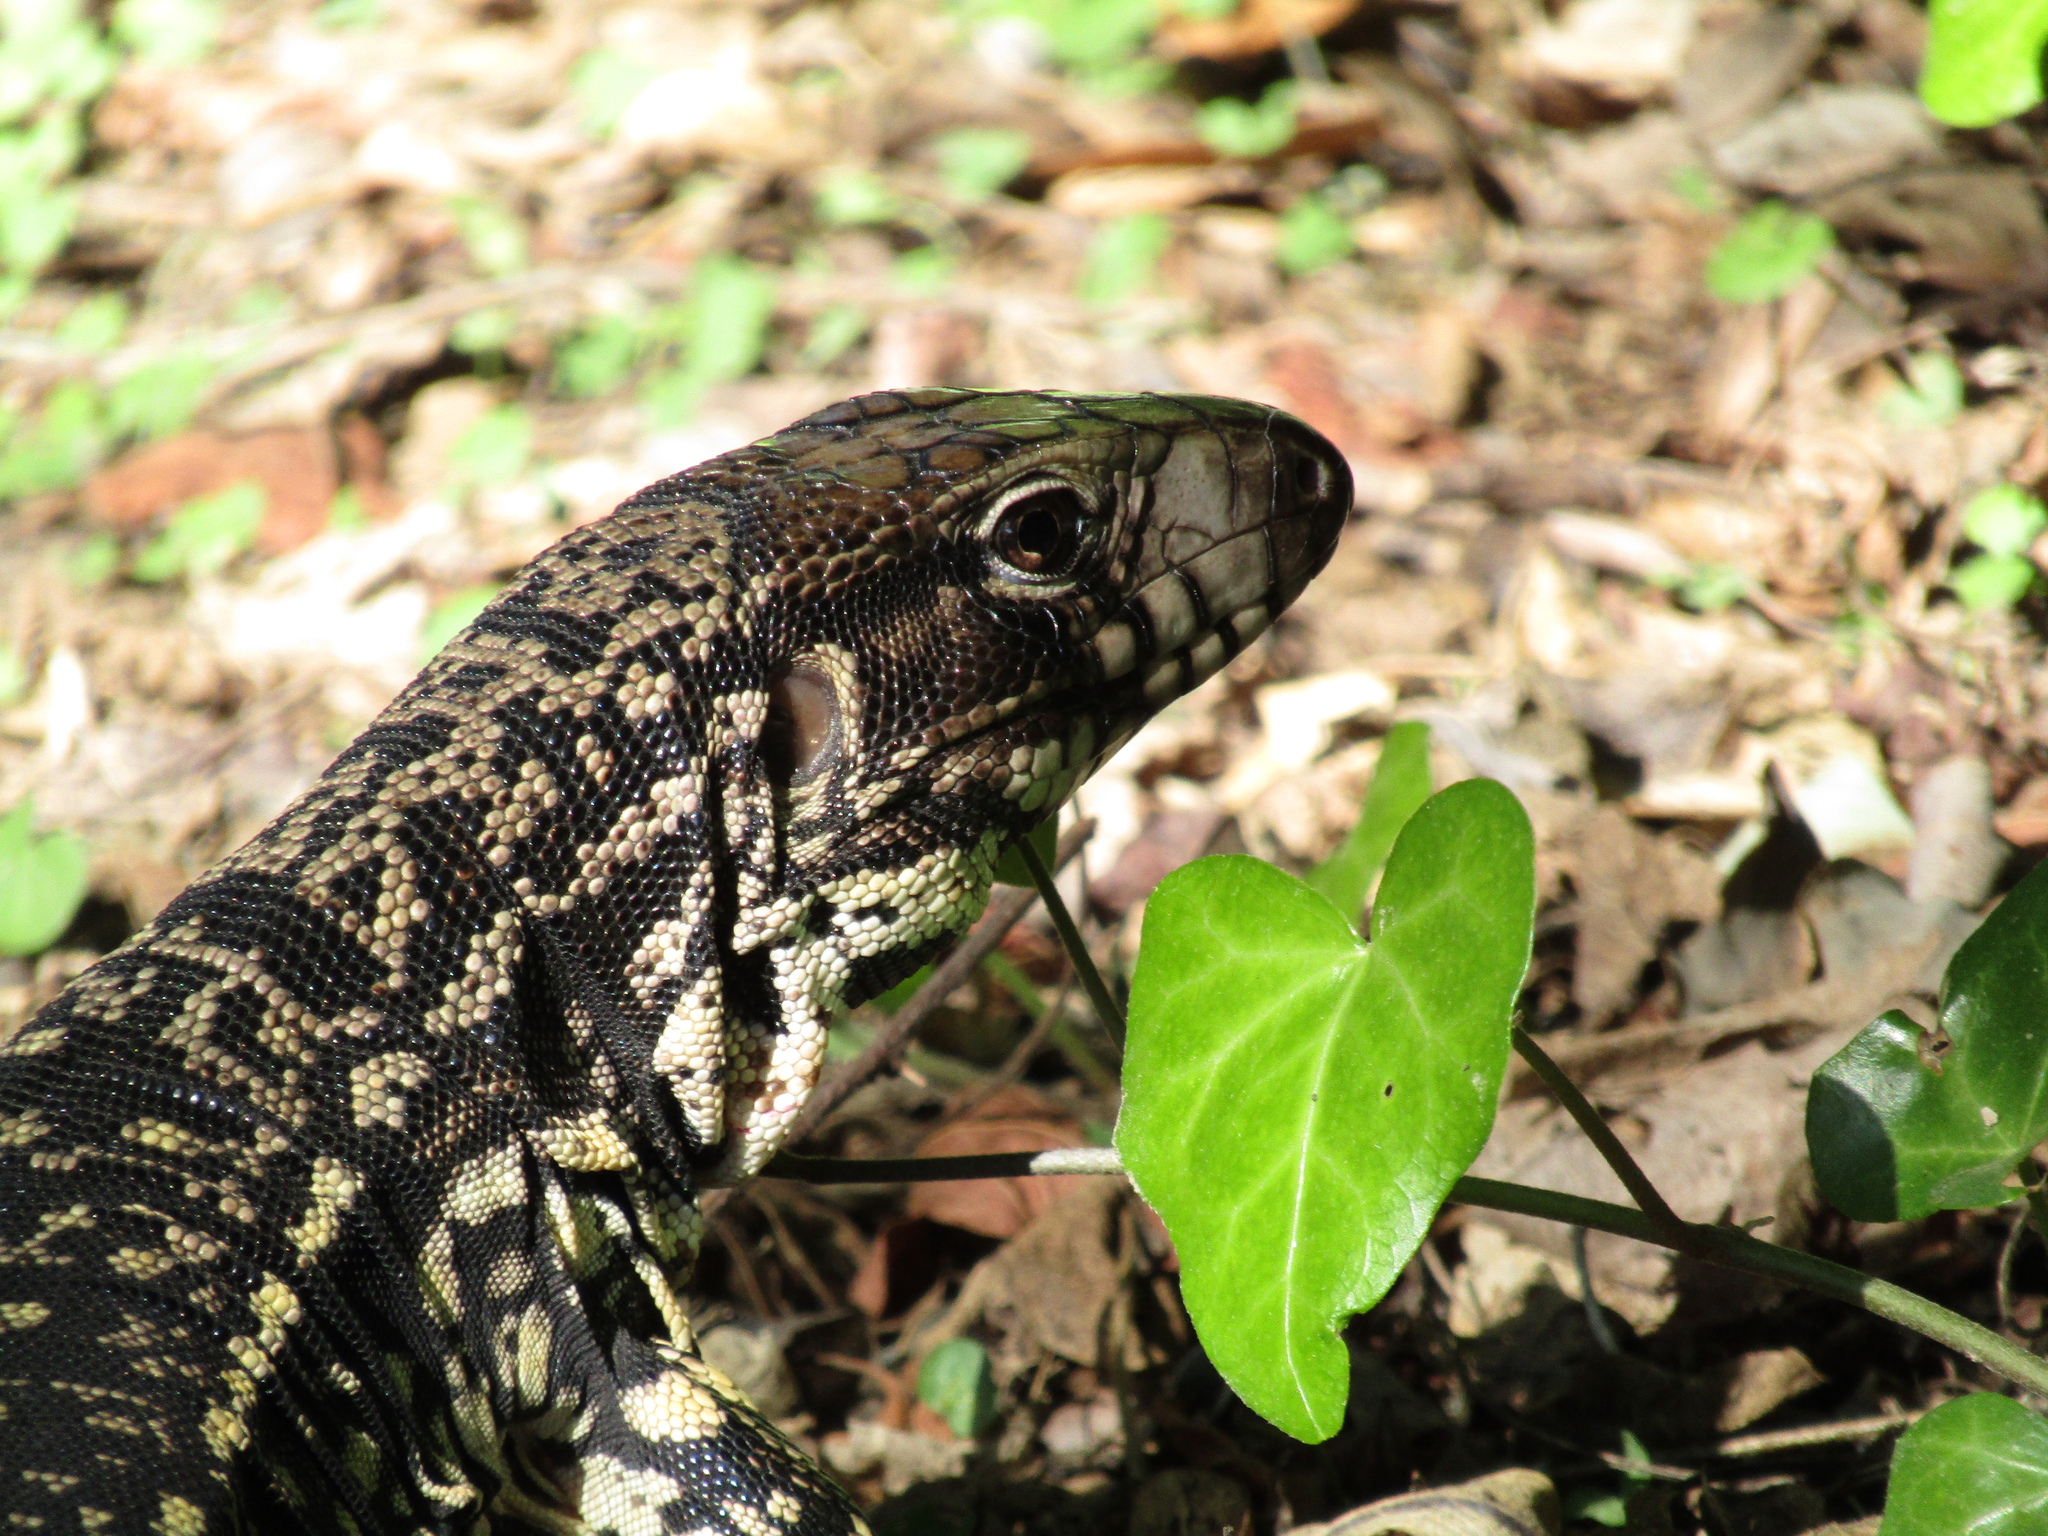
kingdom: Animalia
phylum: Chordata
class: Squamata
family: Teiidae
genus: Salvator
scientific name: Salvator merianae
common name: Argentine black and white tegu
